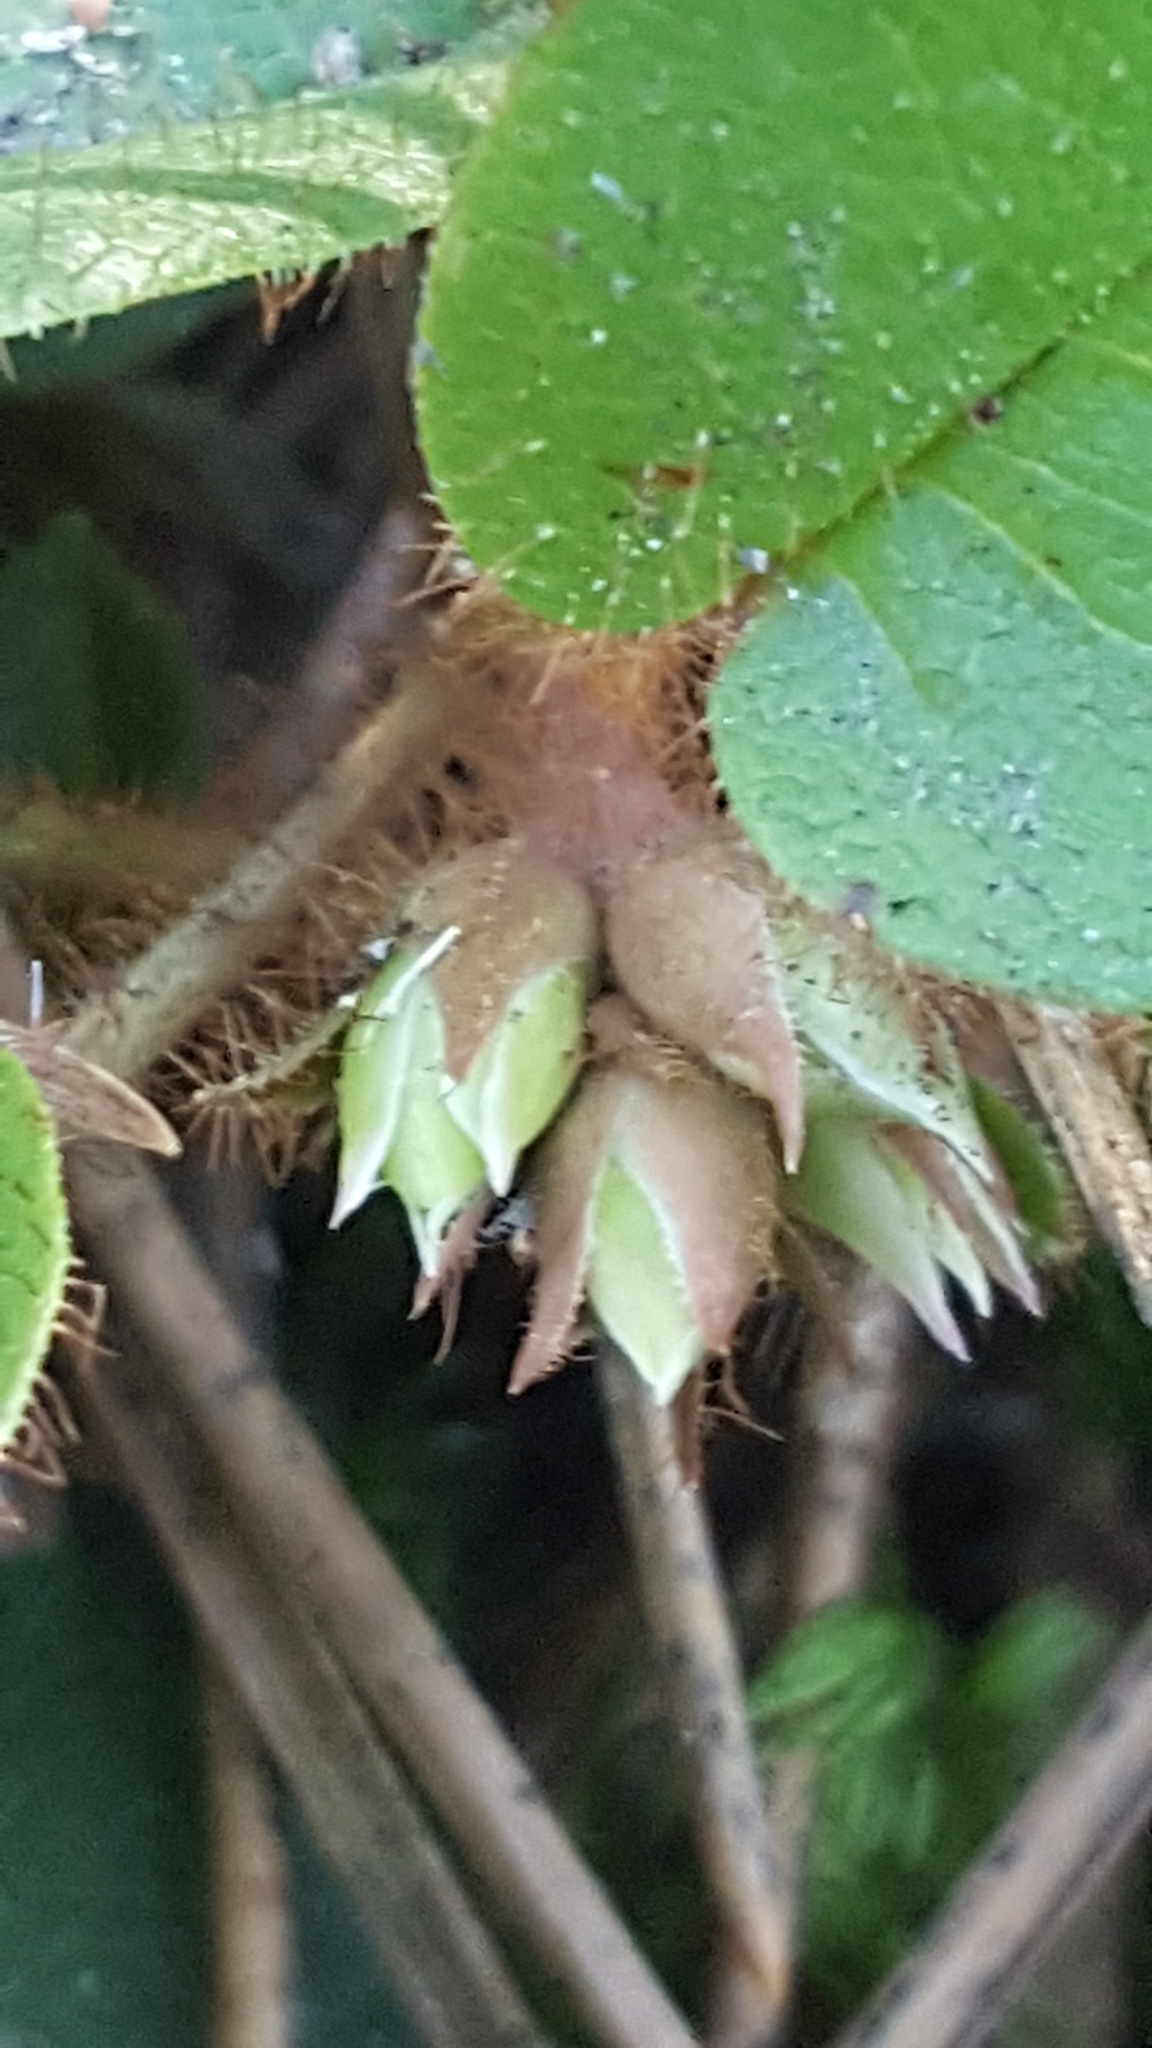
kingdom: Plantae
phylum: Tracheophyta
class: Magnoliopsida
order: Ericales
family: Ericaceae
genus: Epigaea
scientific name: Epigaea repens
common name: Gravelroot
